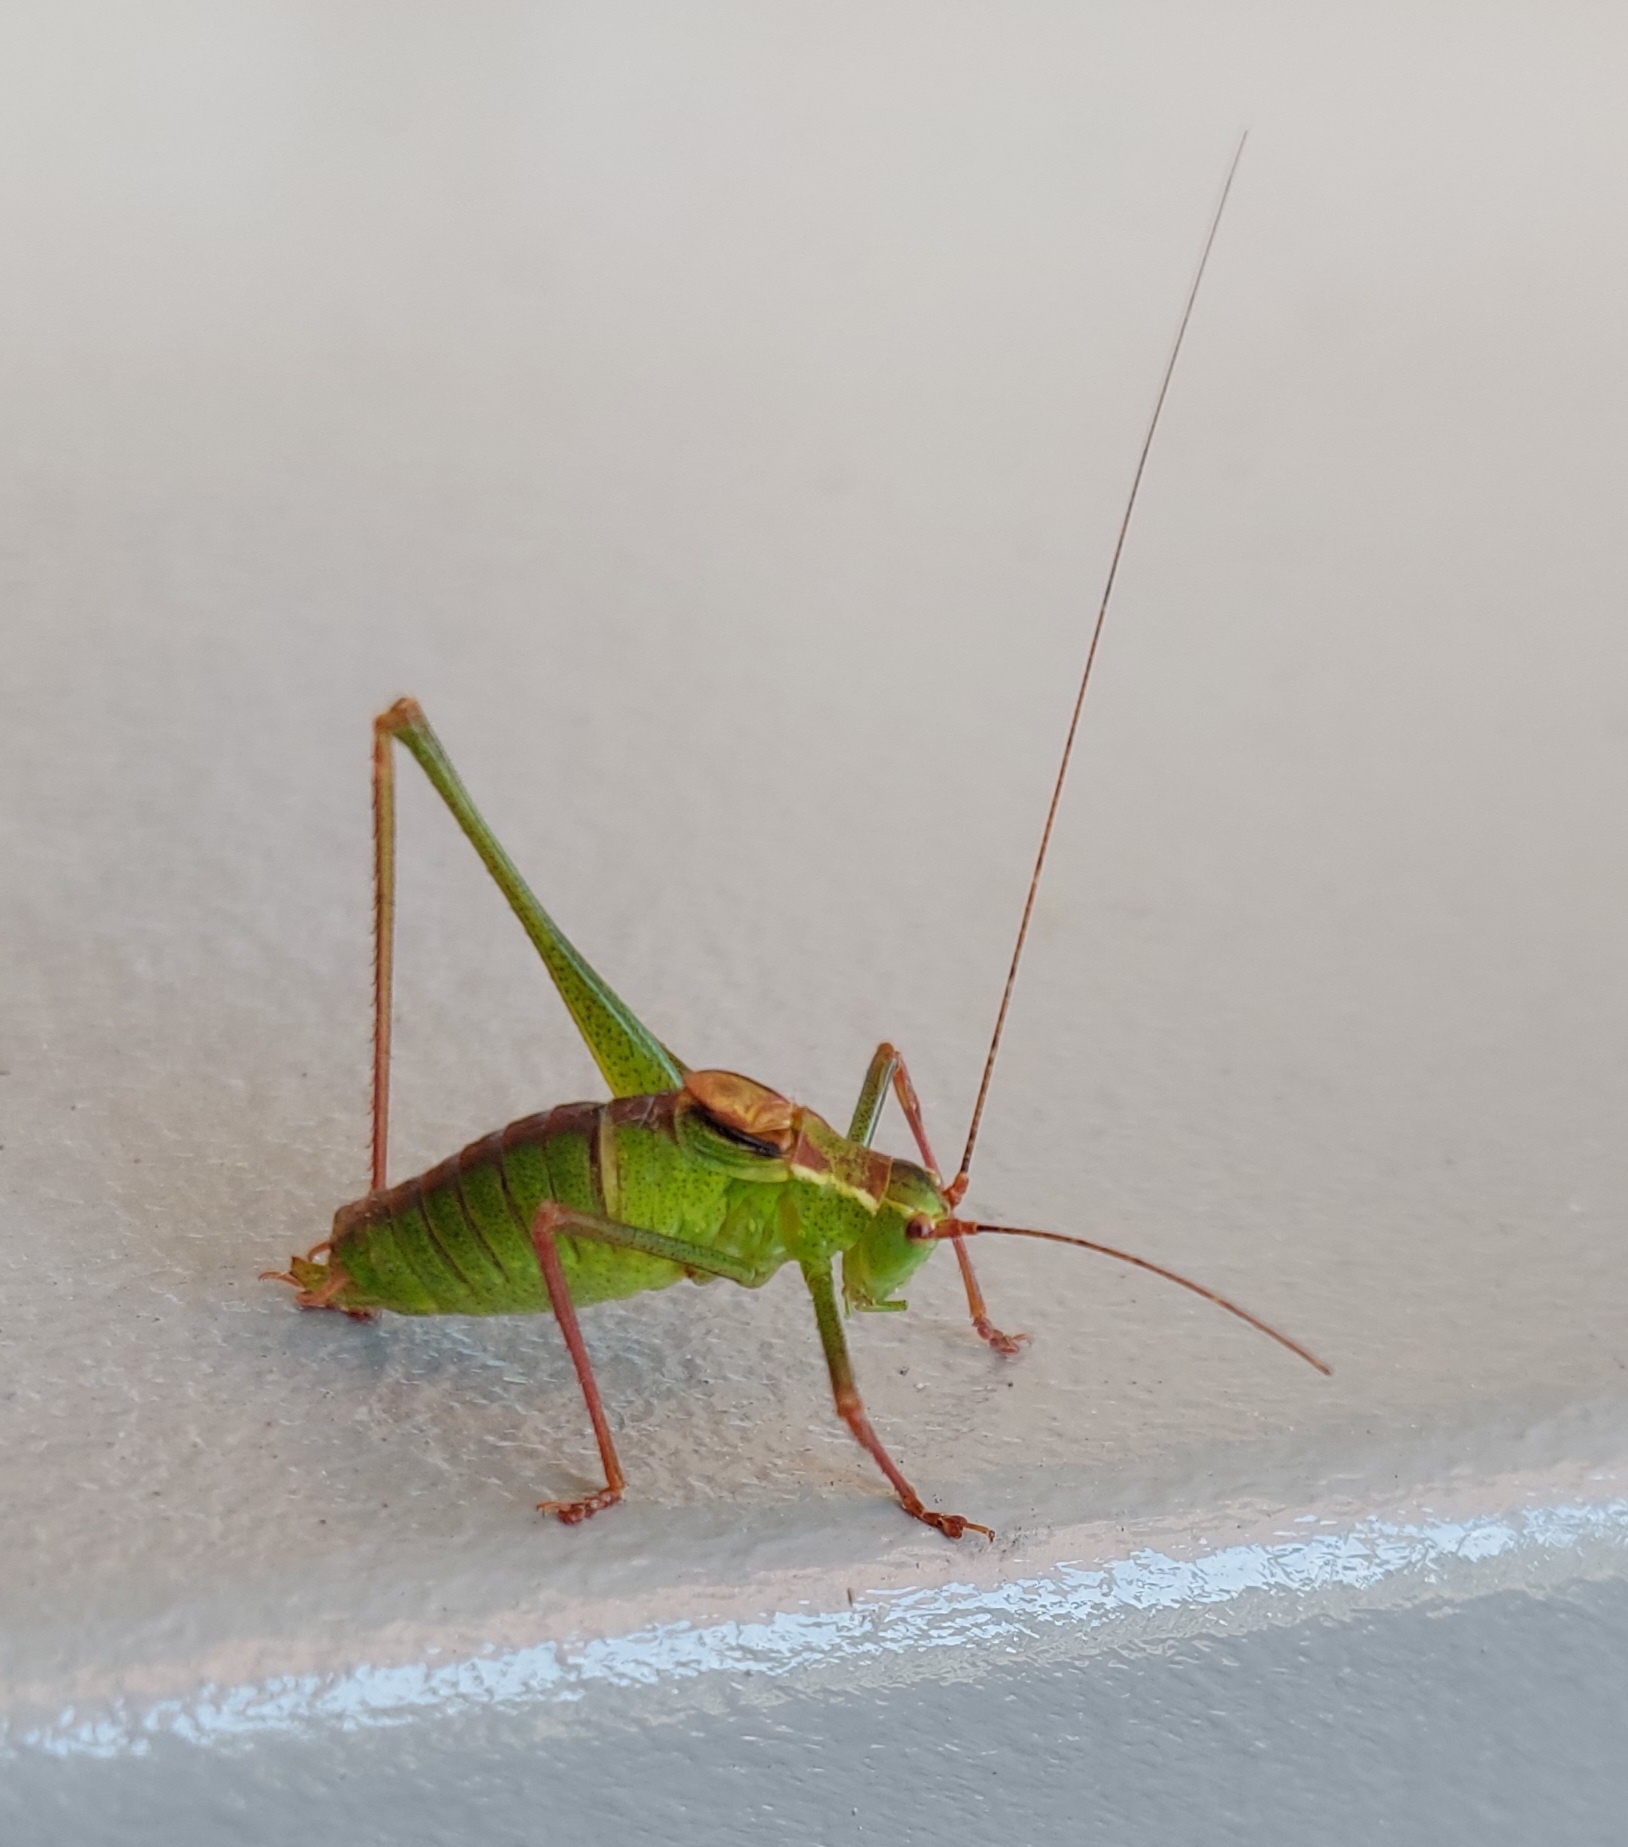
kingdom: Animalia
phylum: Arthropoda
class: Insecta
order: Orthoptera
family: Tettigoniidae
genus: Leptophyes
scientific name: Leptophyes punctatissima
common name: Speckled bush-cricket
